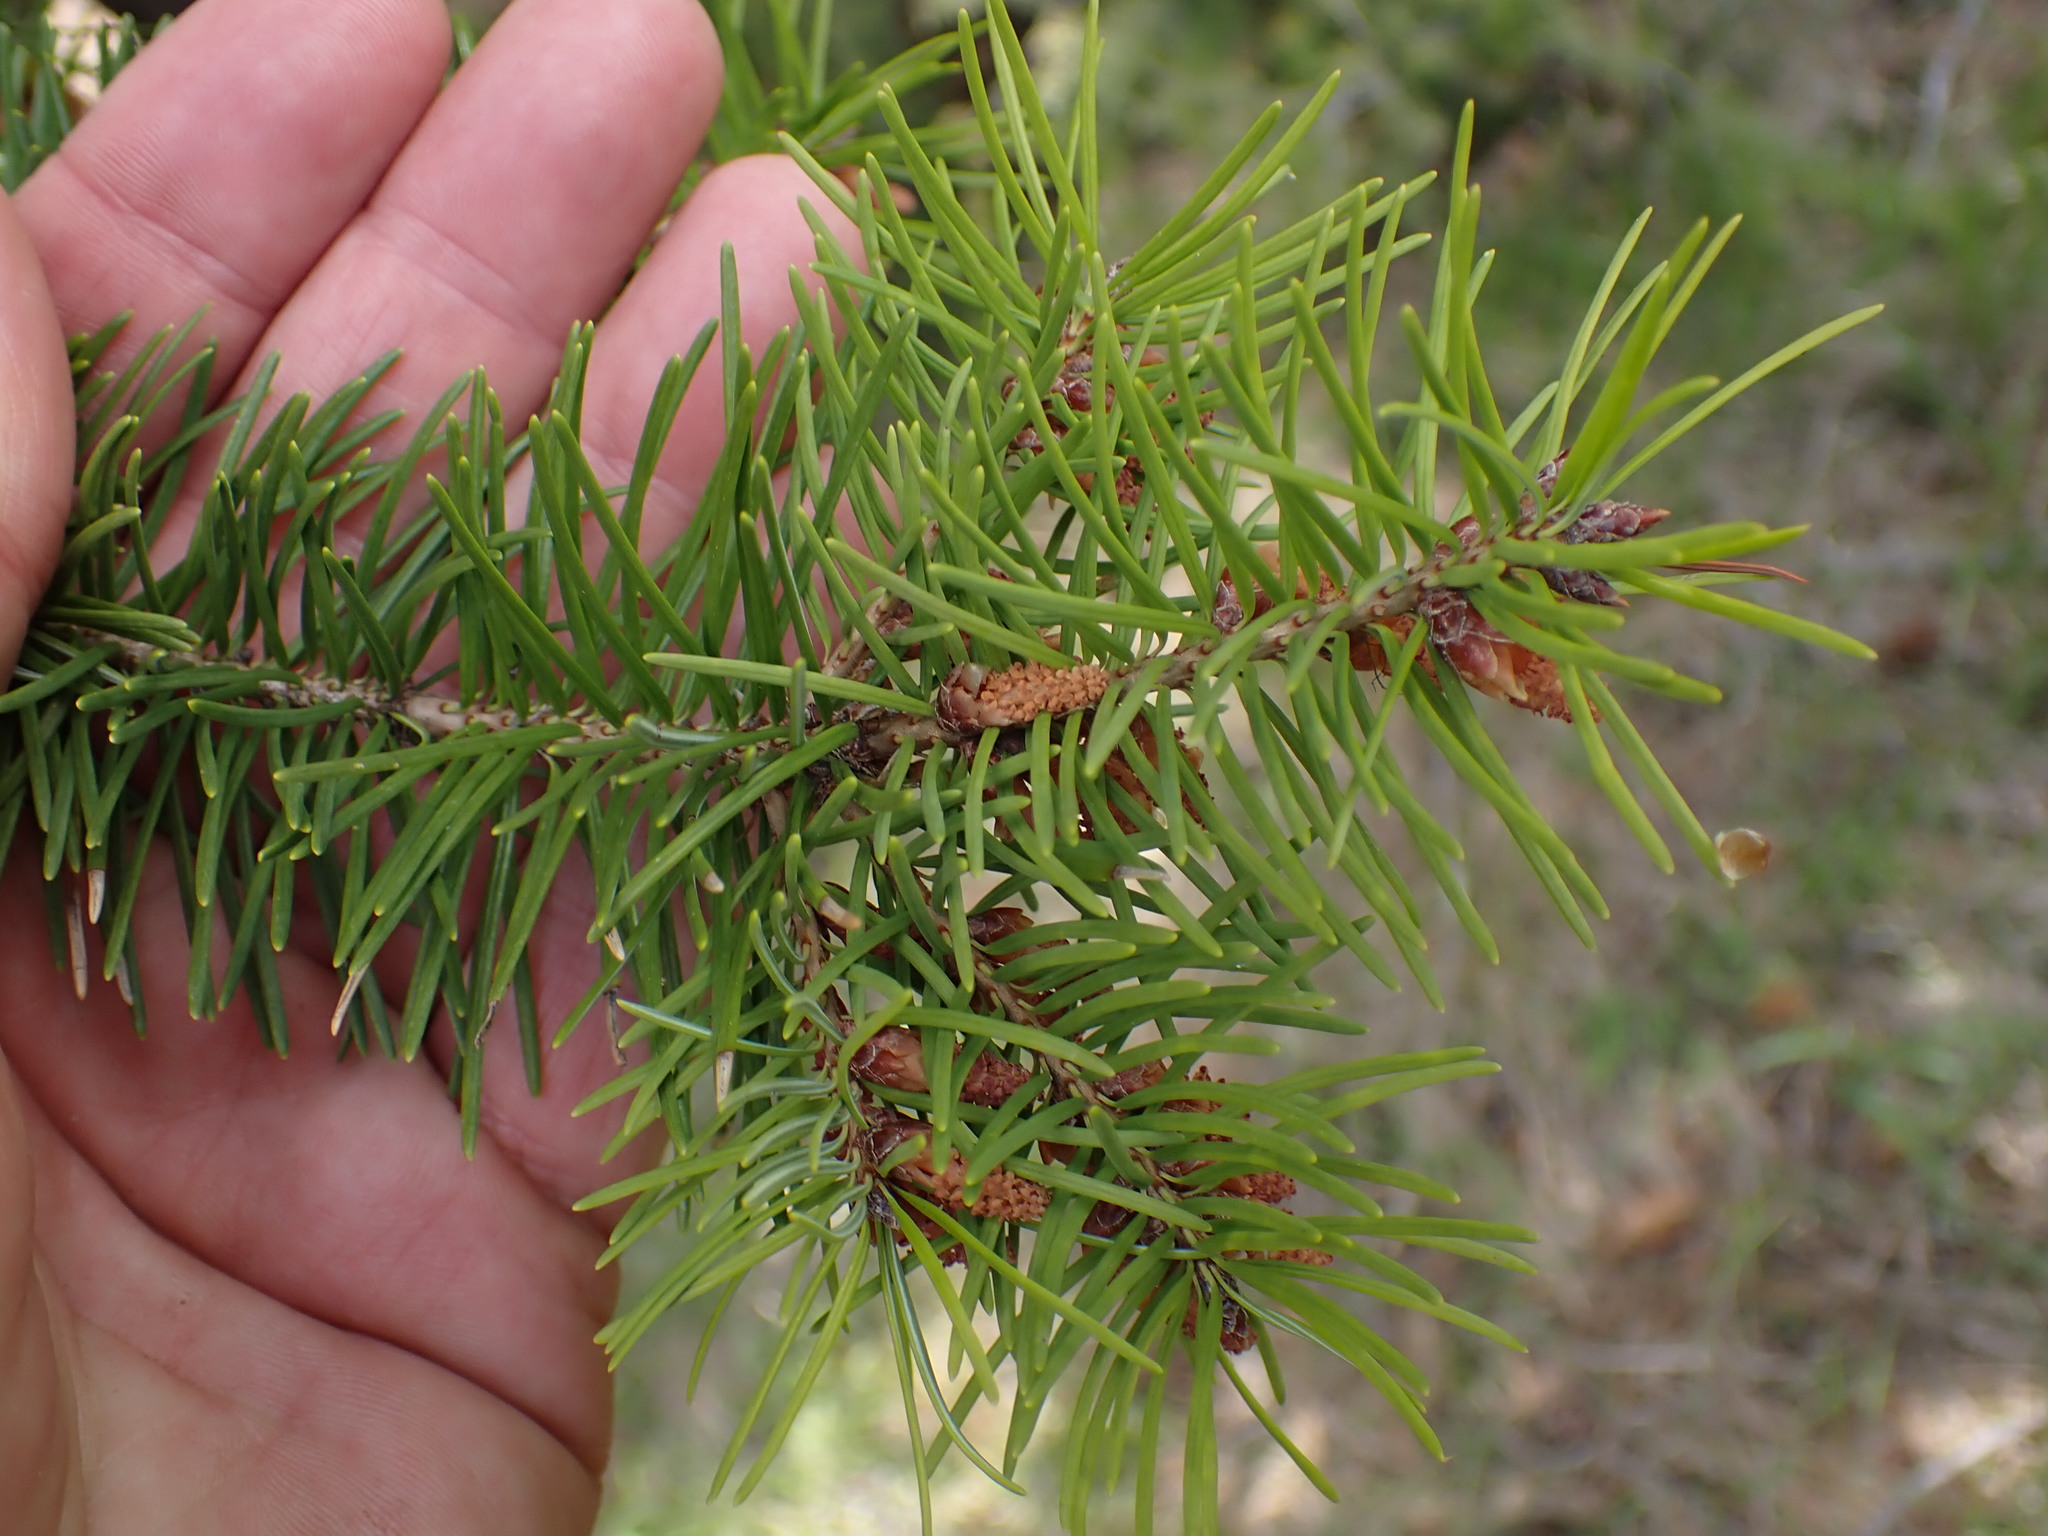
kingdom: Plantae
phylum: Tracheophyta
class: Pinopsida
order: Pinales
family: Pinaceae
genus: Pseudotsuga
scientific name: Pseudotsuga menziesii
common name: Douglas fir
